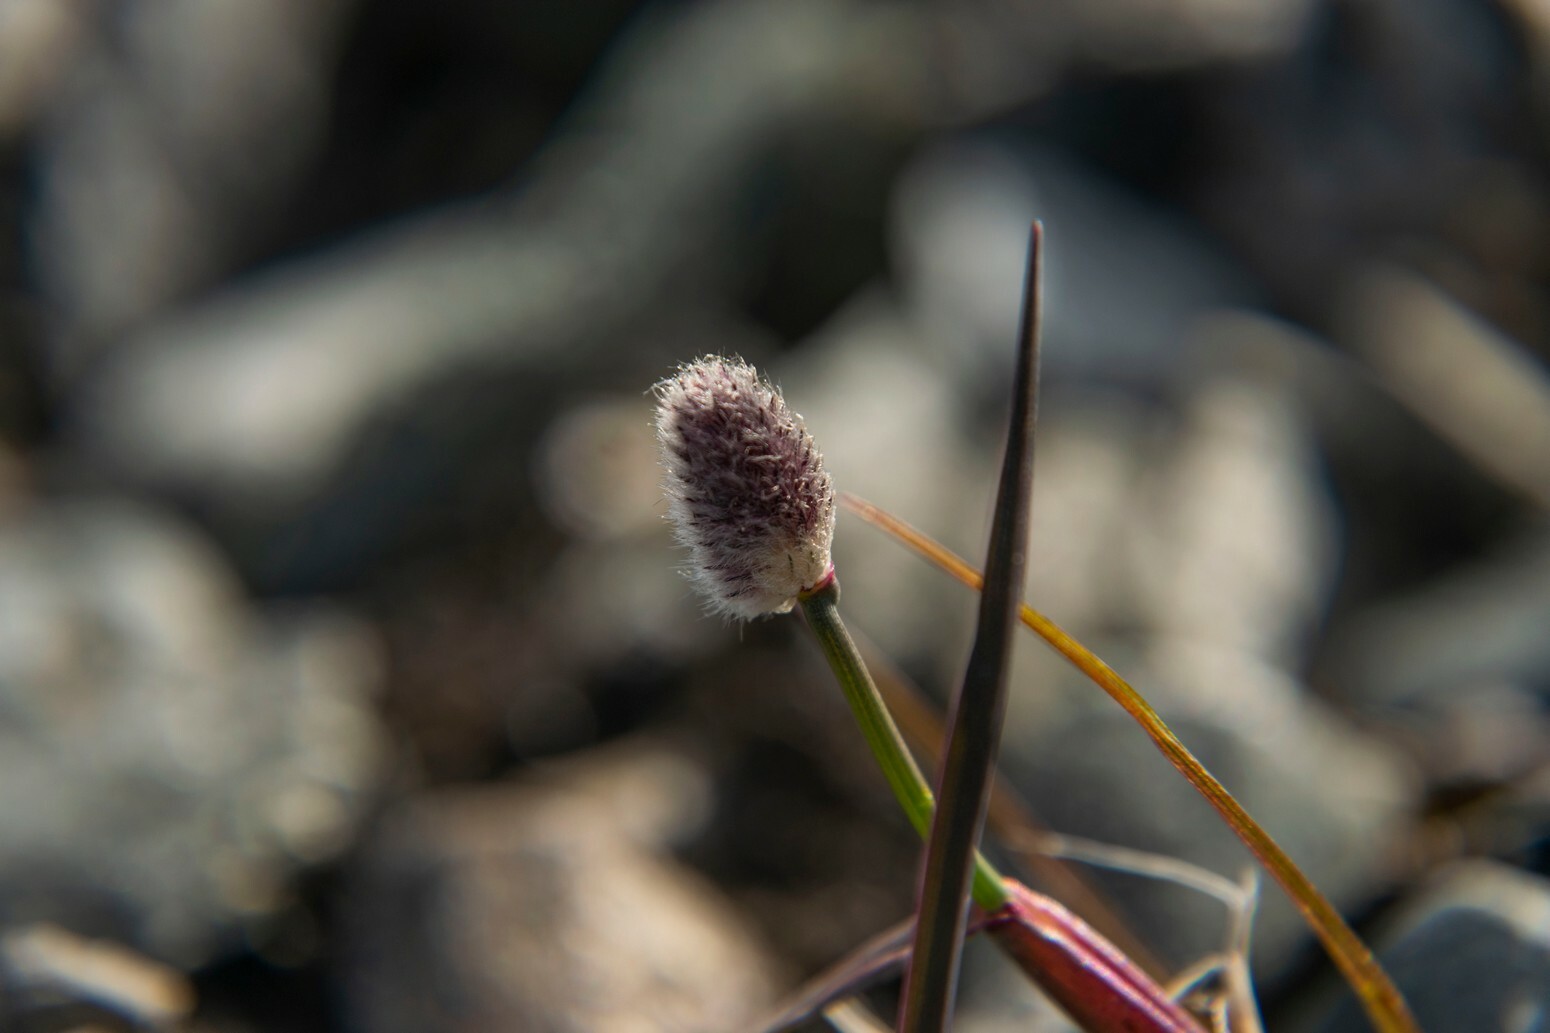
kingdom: Plantae
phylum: Tracheophyta
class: Liliopsida
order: Poales
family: Poaceae
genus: Alopecurus
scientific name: Alopecurus magellanicus
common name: Alpine foxtail
